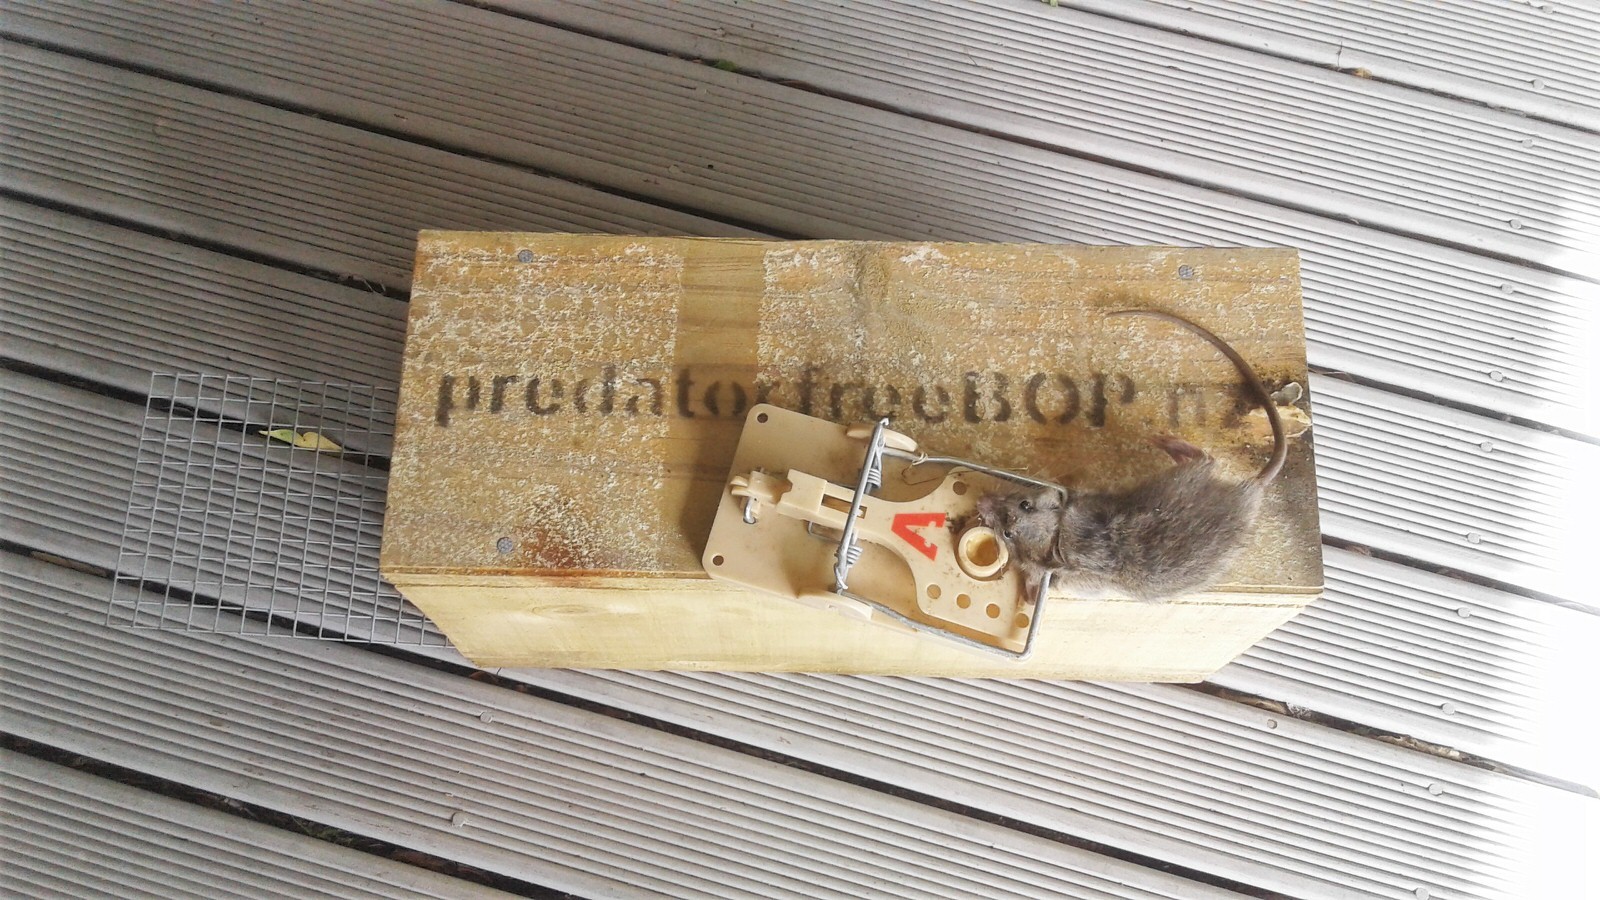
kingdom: Animalia
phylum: Chordata
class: Mammalia
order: Rodentia
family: Muridae
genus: Rattus
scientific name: Rattus rattus
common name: Black rat
